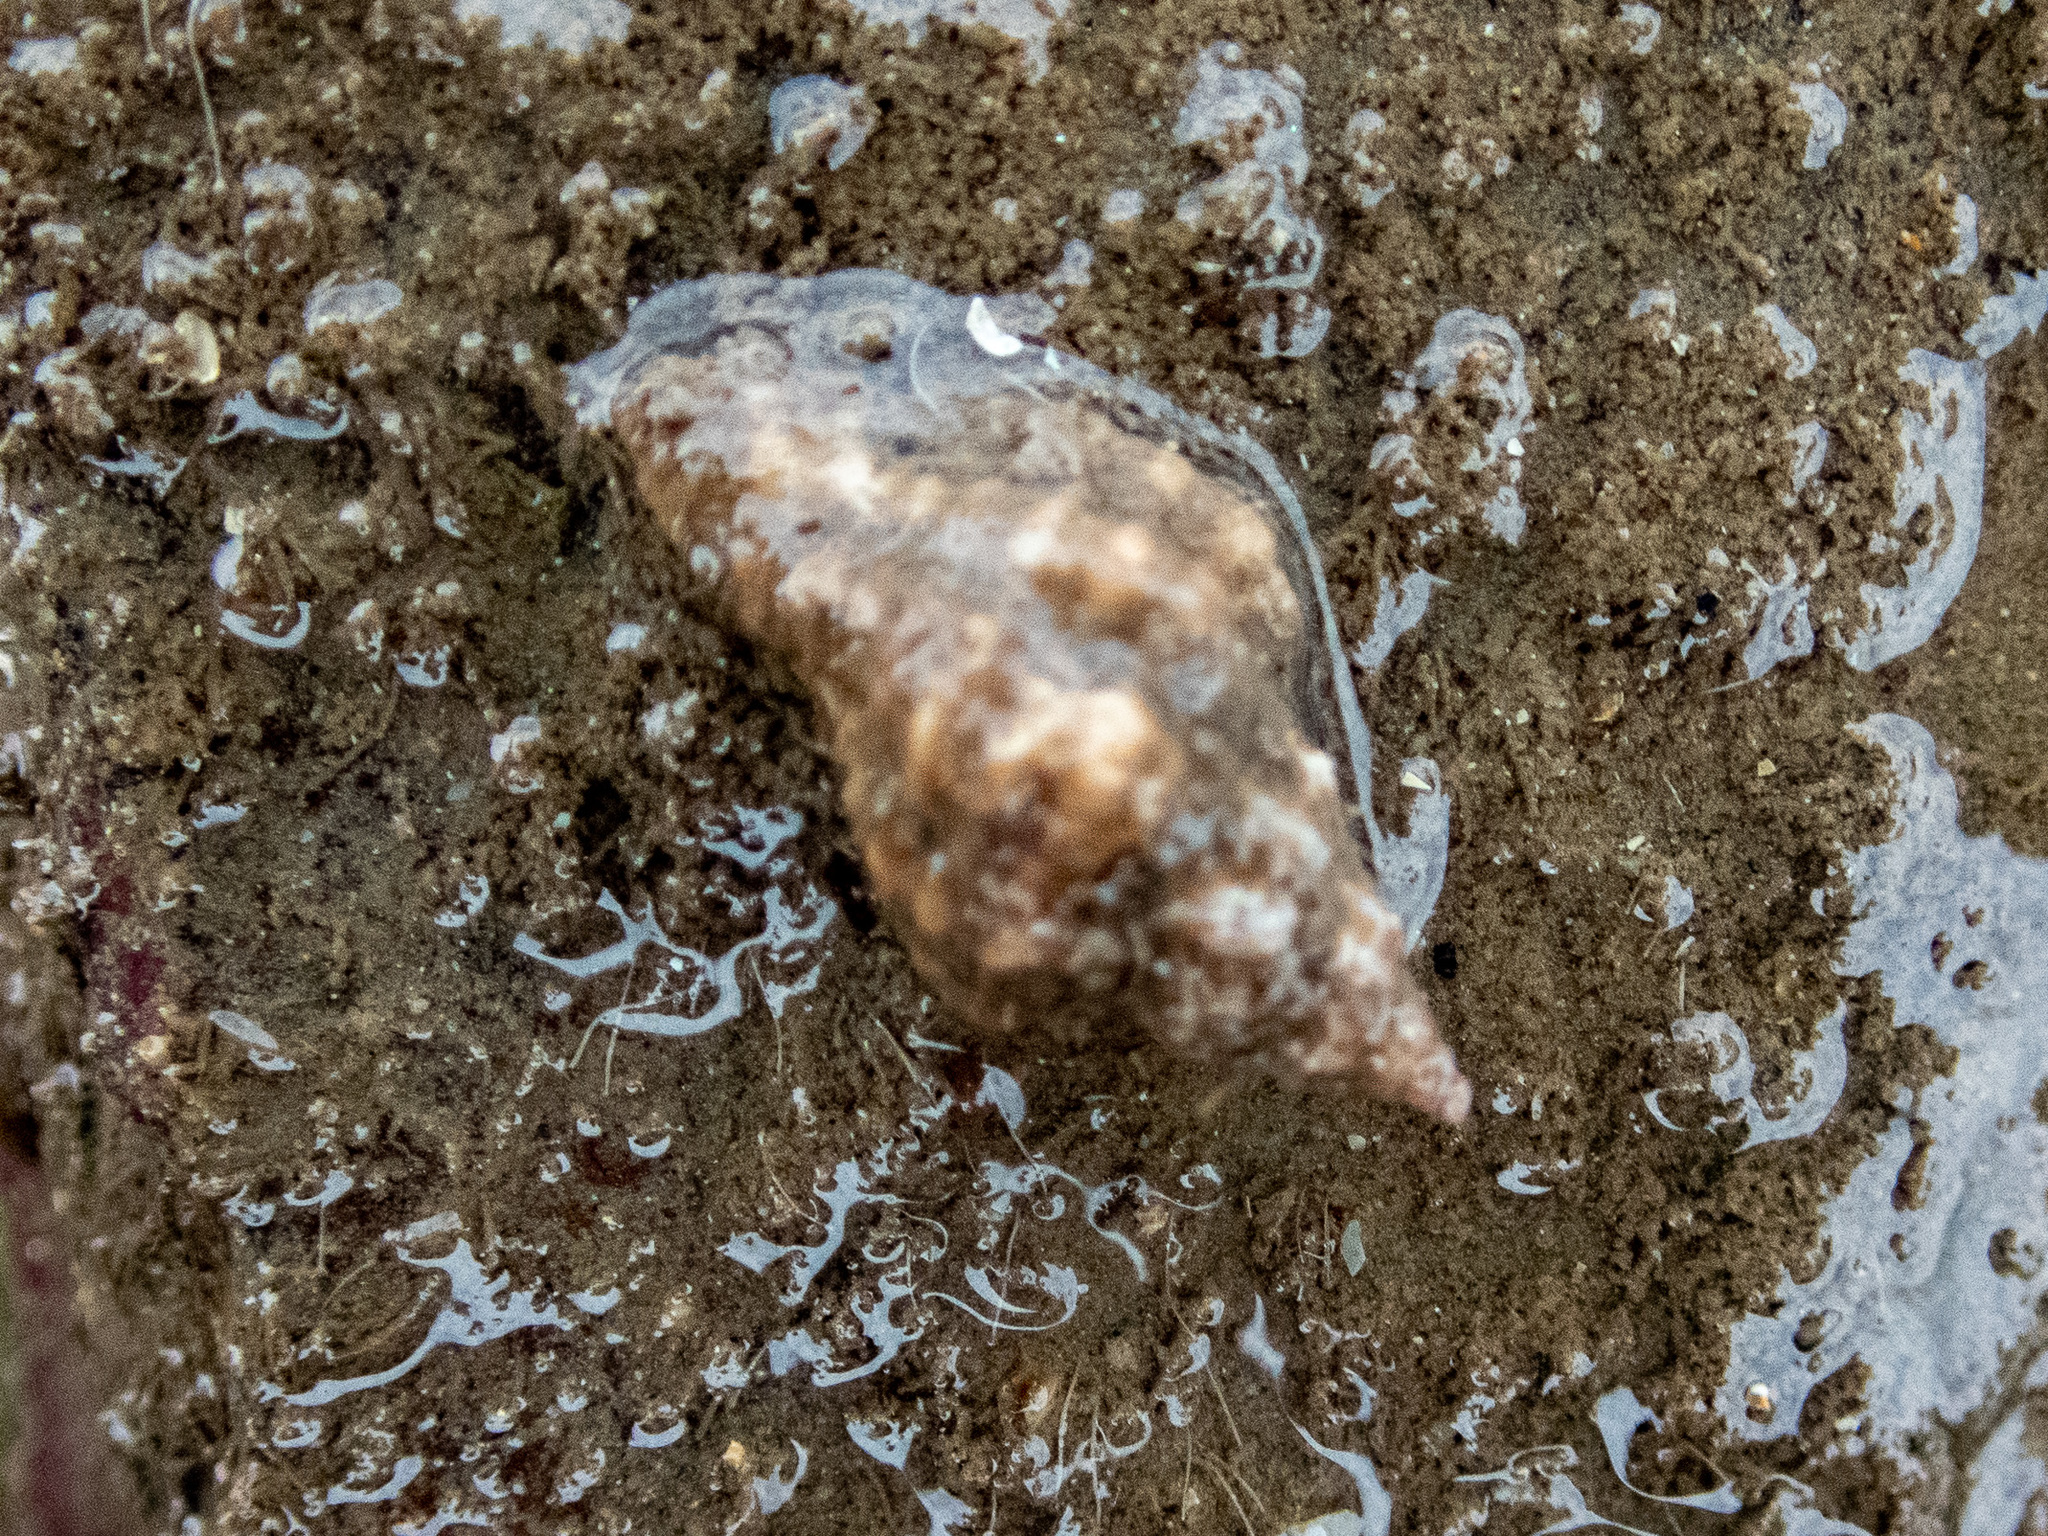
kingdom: Animalia
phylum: Mollusca
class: Gastropoda
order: Neogastropoda
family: Muricidae
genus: Ocenebra
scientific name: Ocenebra erinaceus
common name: European sting winkle
